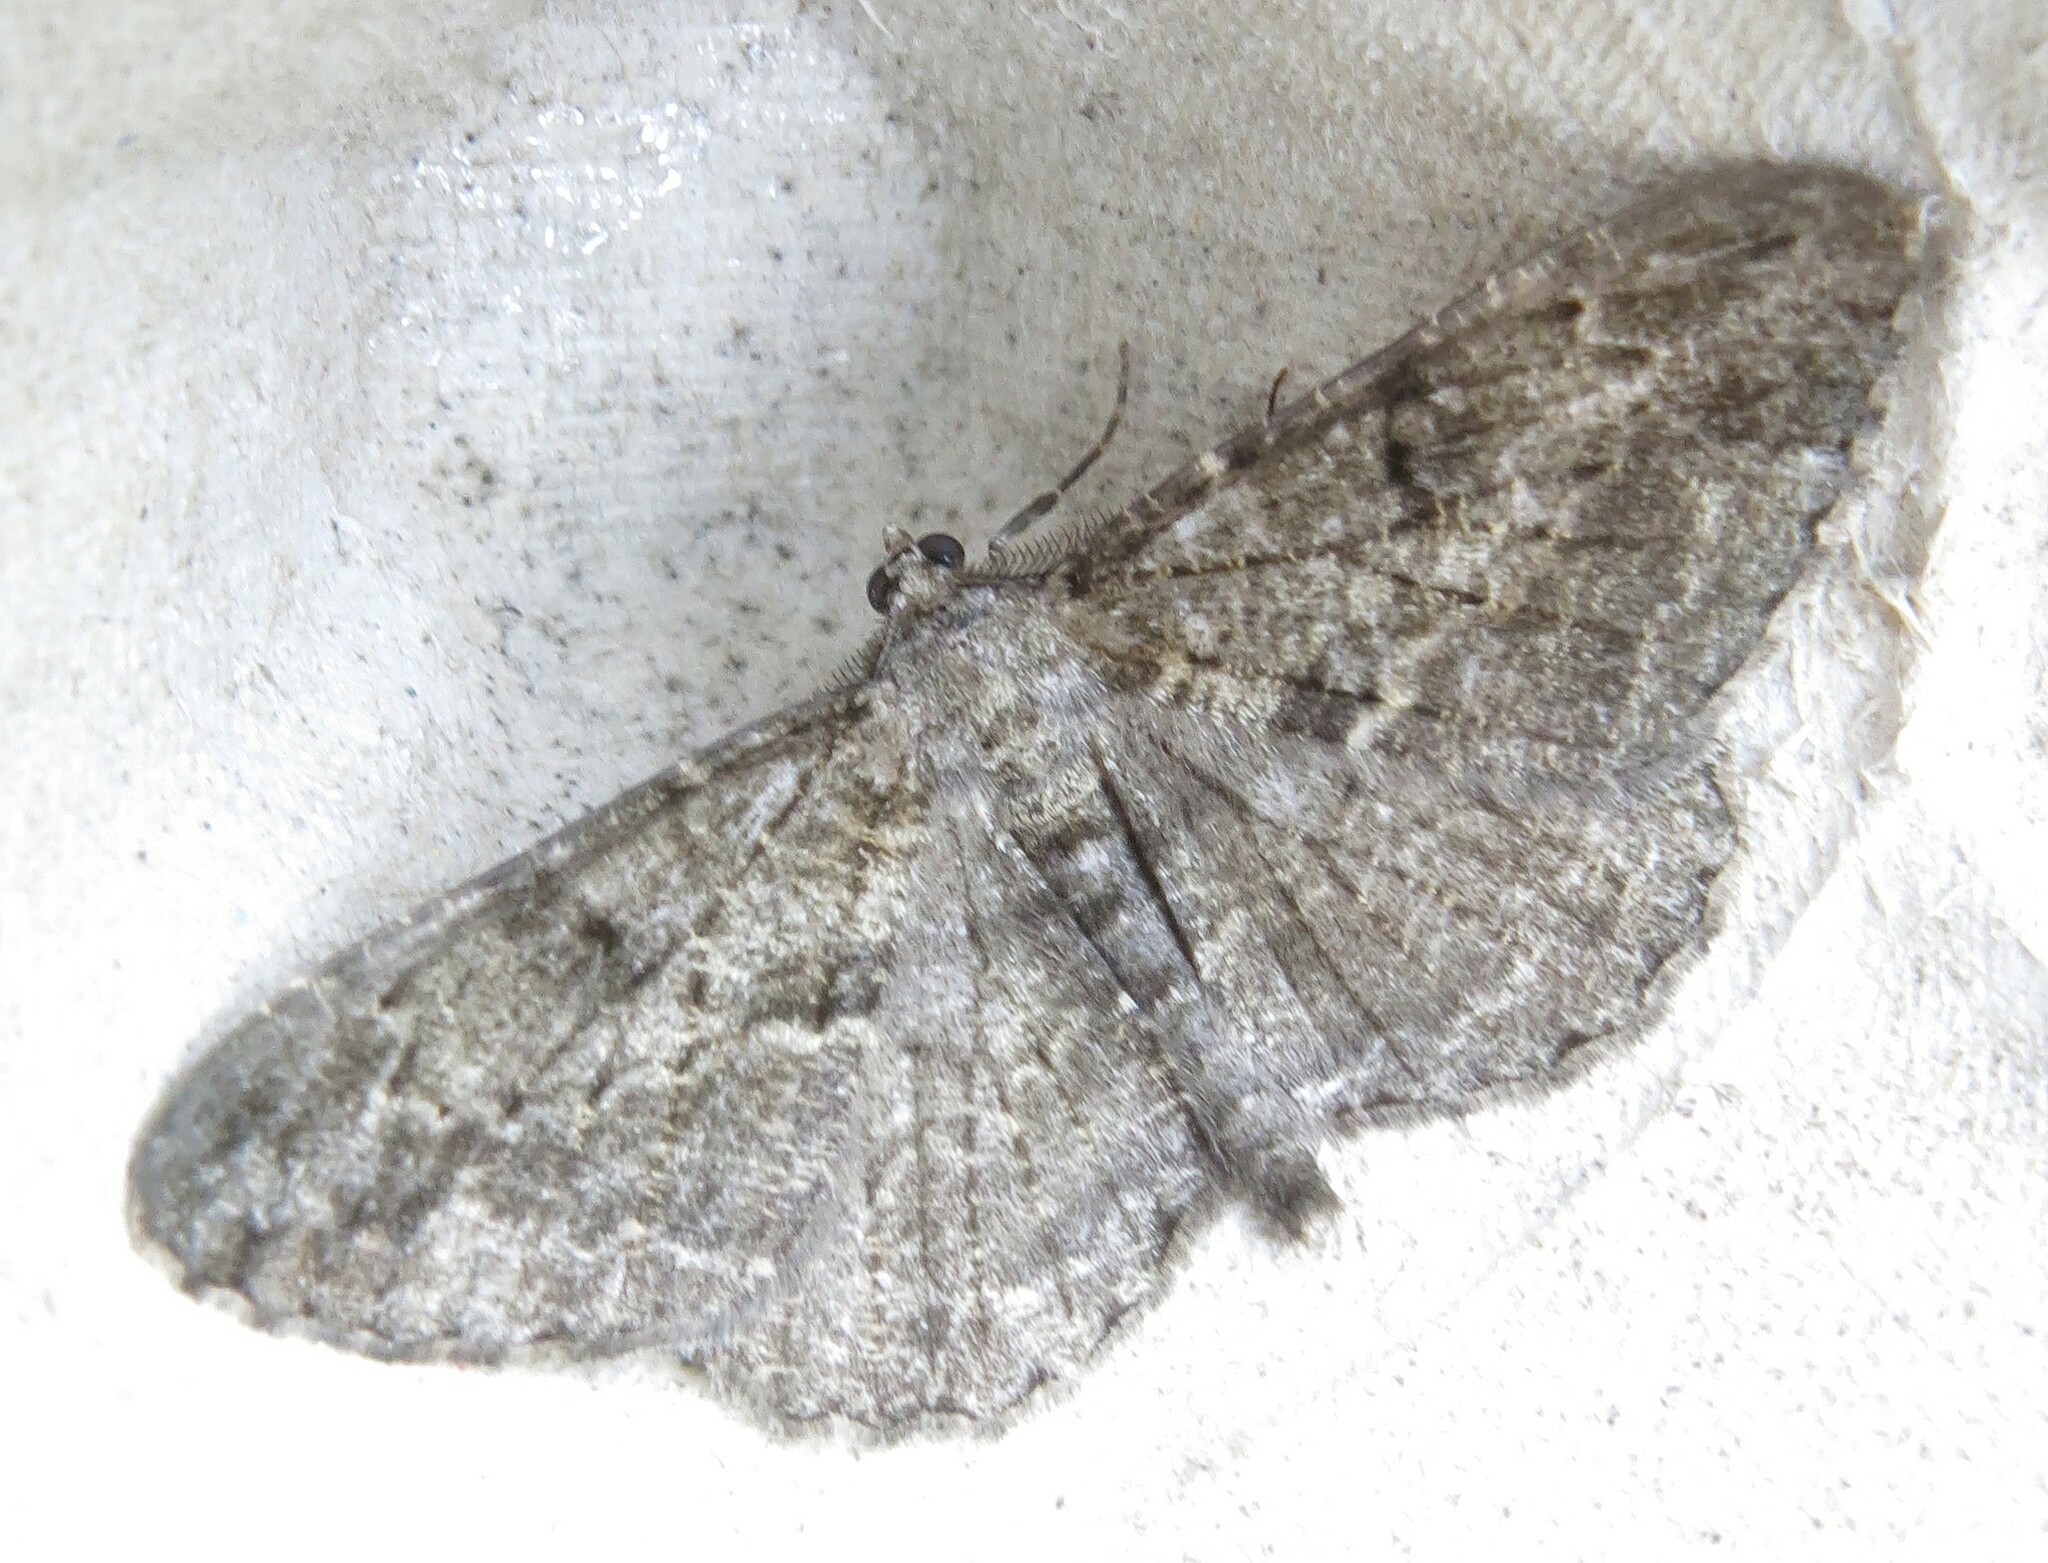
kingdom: Animalia
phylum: Arthropoda
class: Insecta
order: Lepidoptera
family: Geometridae
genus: Peribatodes
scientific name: Peribatodes rhomboidaria
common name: Willow beauty
